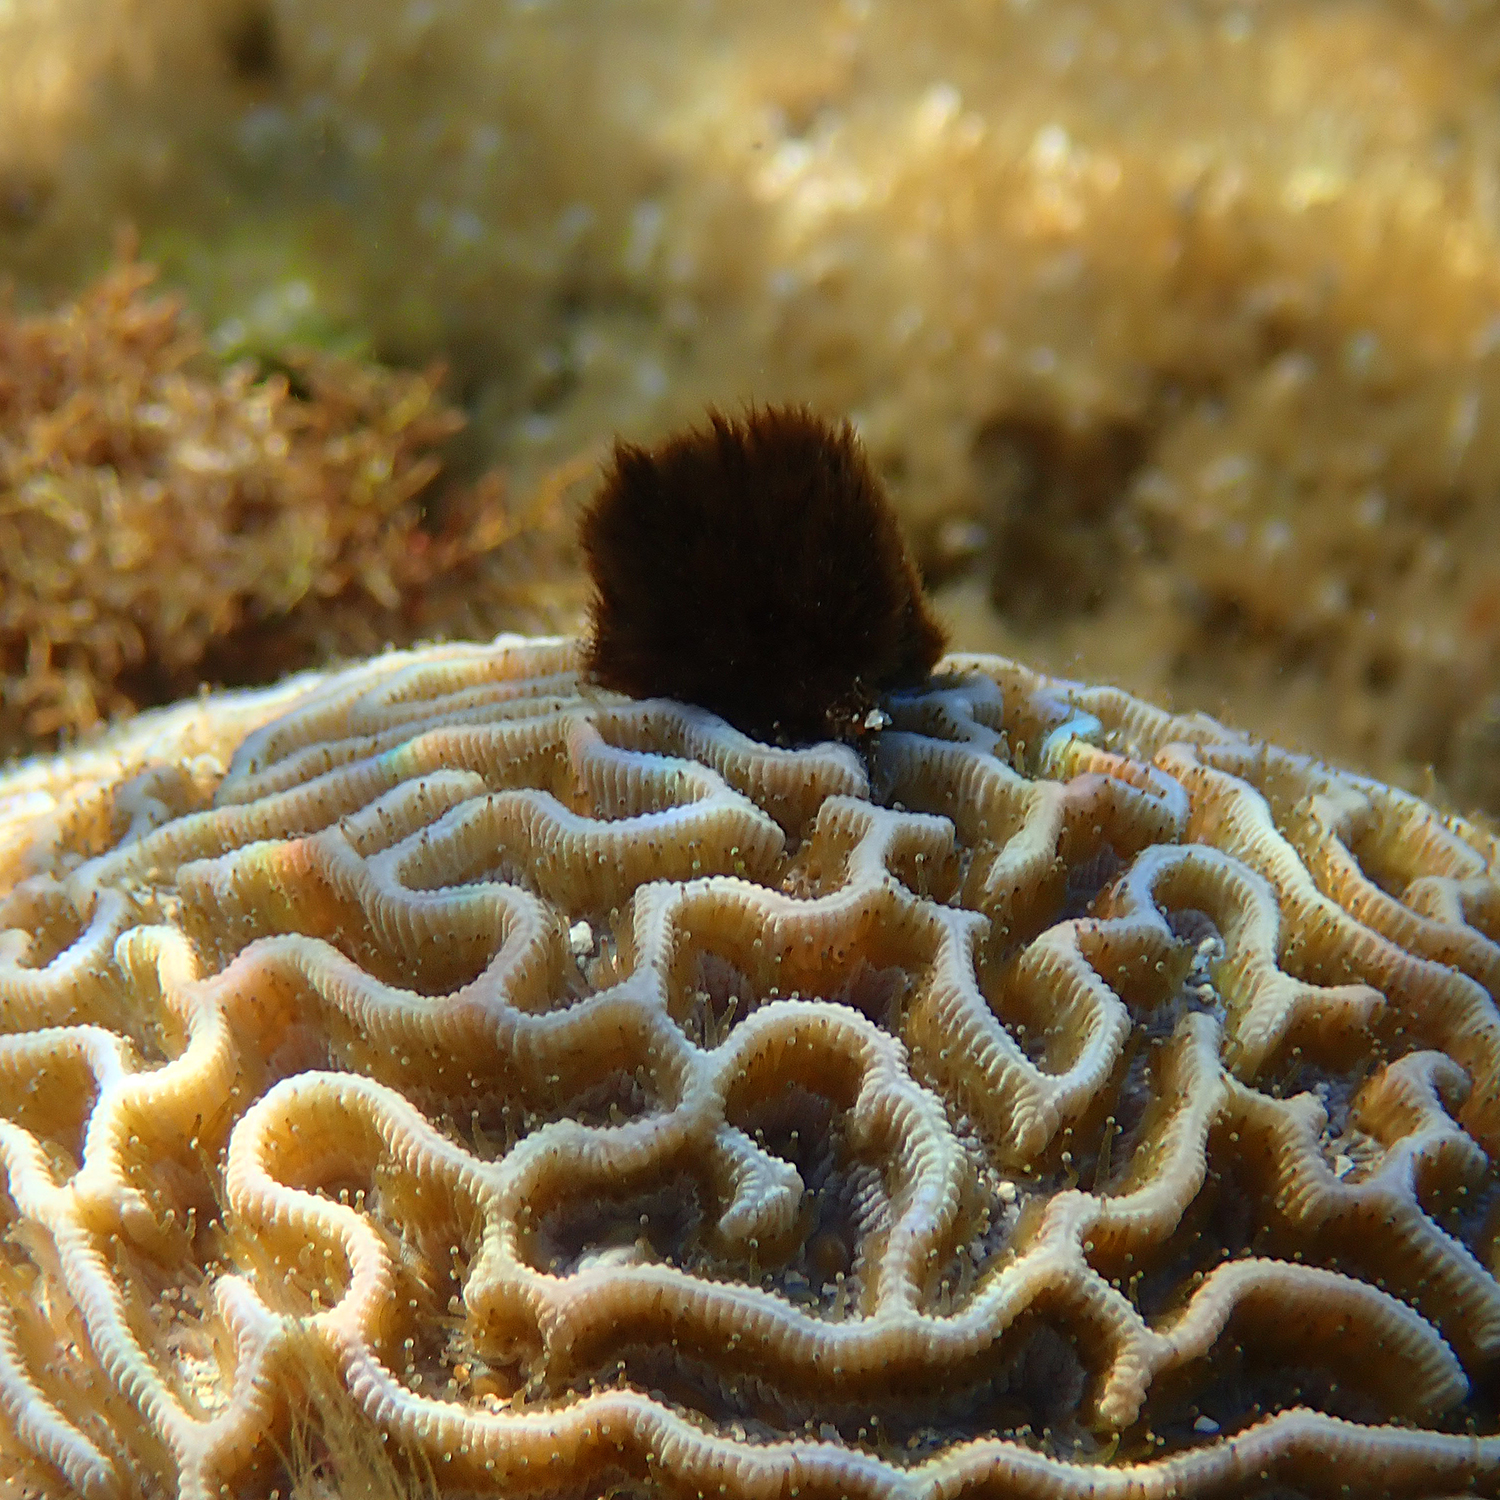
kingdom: Animalia
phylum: Cnidaria
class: Anthozoa
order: Scleractinia
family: Merulinidae
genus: Paragoniastrea
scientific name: Paragoniastrea australensis
